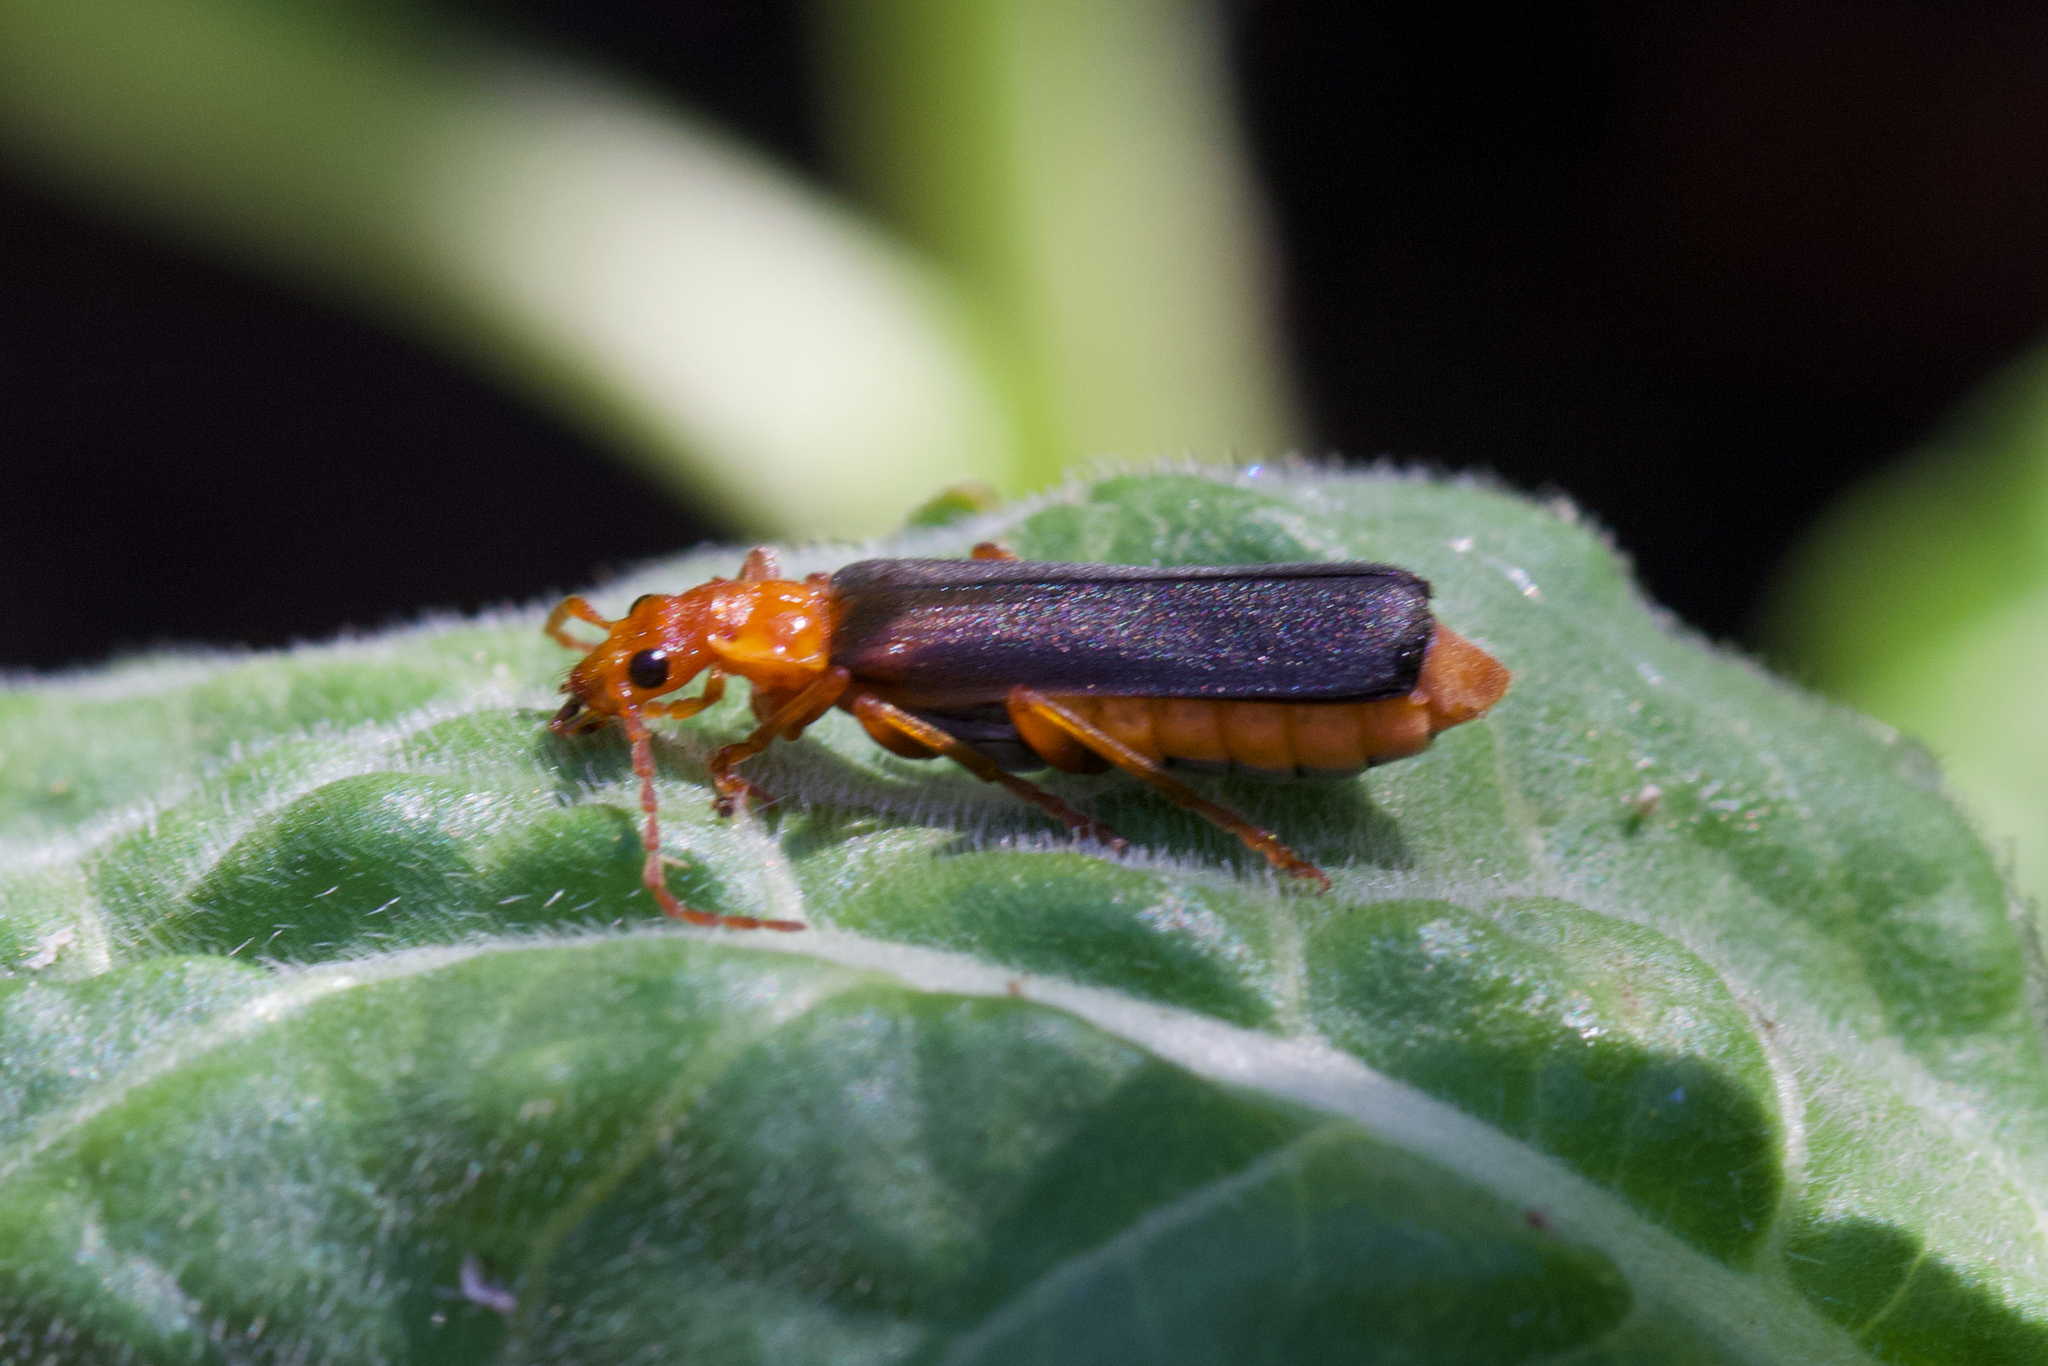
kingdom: Animalia
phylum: Arthropoda
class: Insecta
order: Coleoptera
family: Cantharidae
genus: Podabrus
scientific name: Podabrus pruinosus
